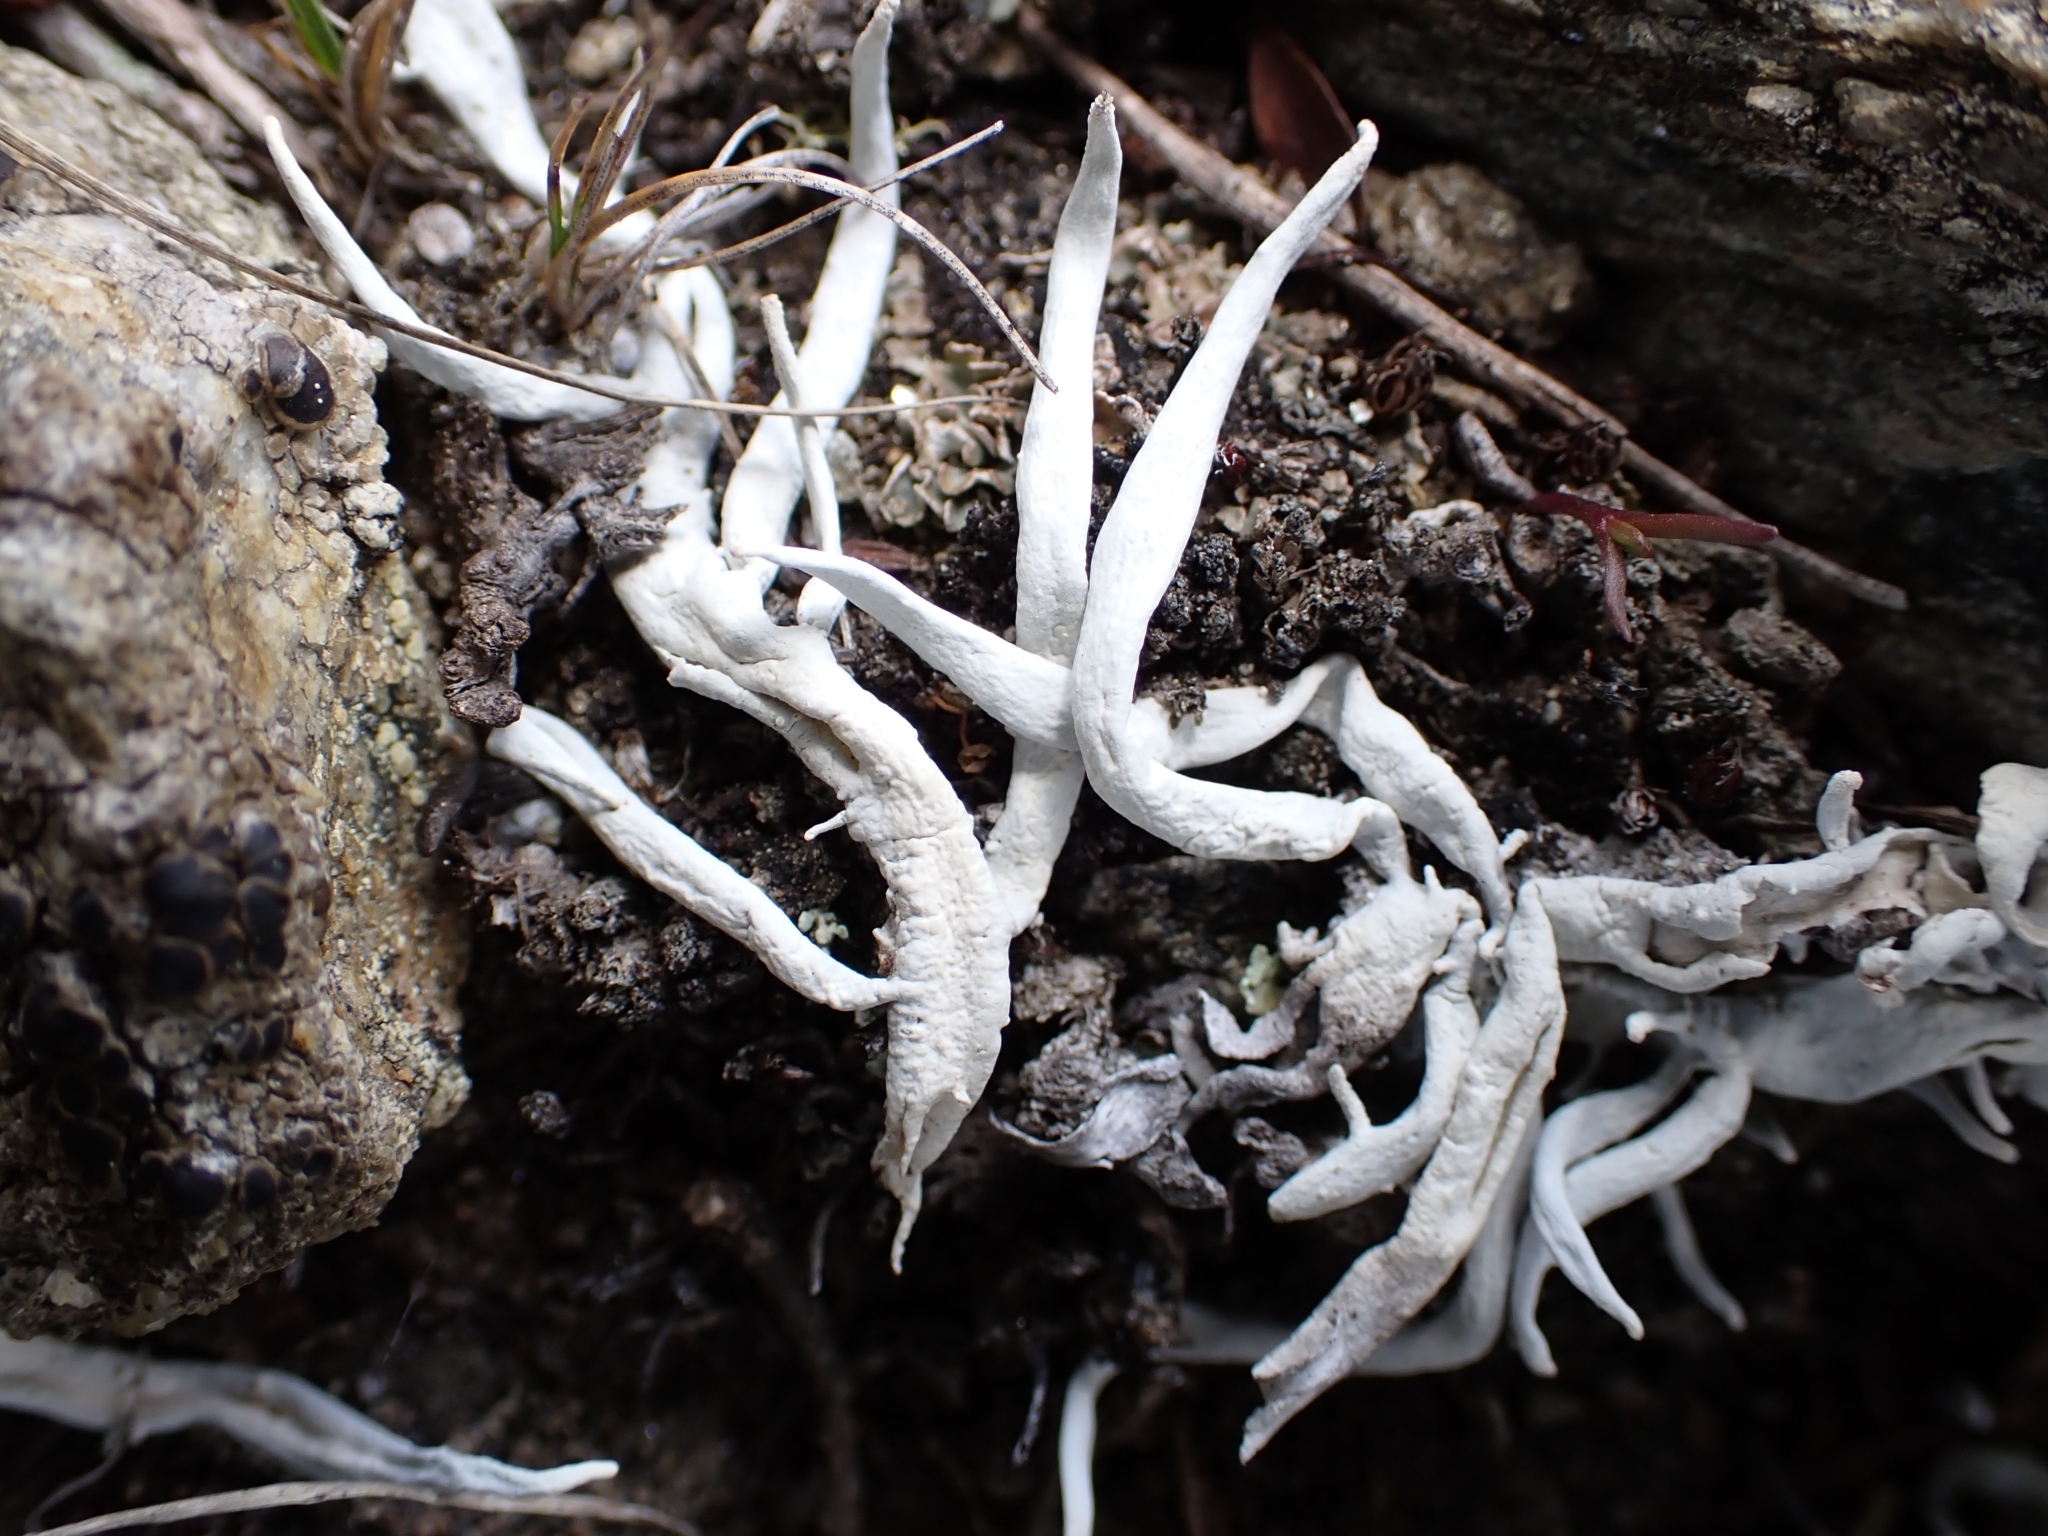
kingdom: Fungi
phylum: Ascomycota
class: Lecanoromycetes
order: Pertusariales
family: Icmadophilaceae
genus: Thamnolia
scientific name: Thamnolia vermicularis
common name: Whiteworm lichen
